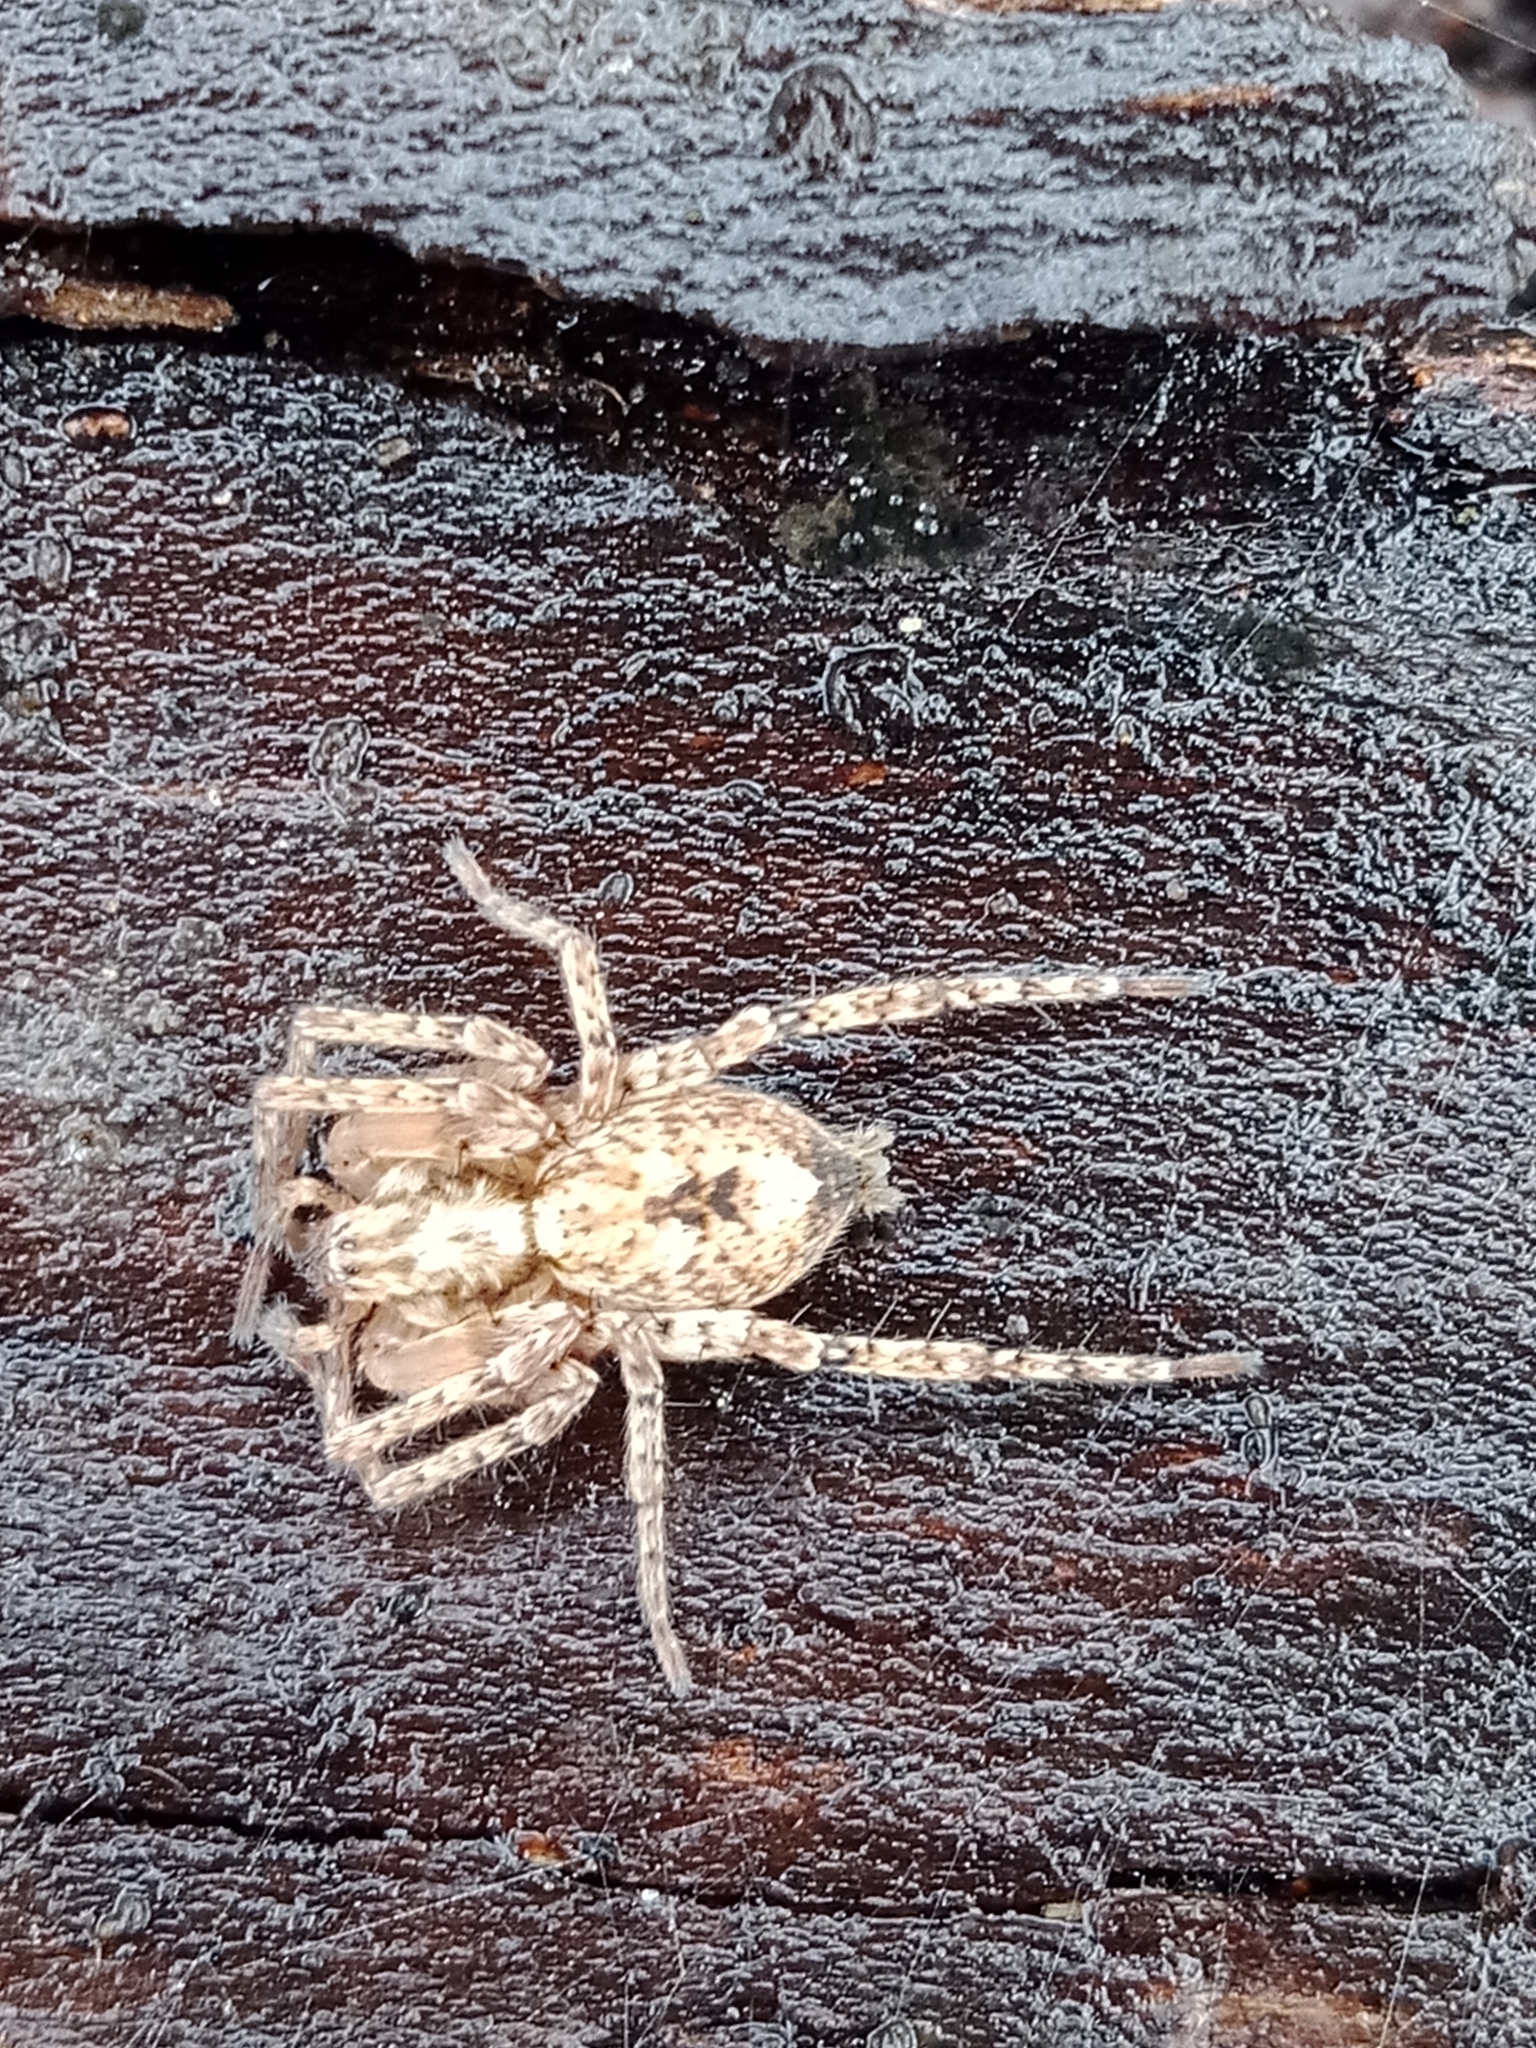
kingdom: Animalia
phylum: Arthropoda
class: Arachnida
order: Araneae
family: Anyphaenidae
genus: Anyphaena
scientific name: Anyphaena accentuata
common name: Buzzing spider
